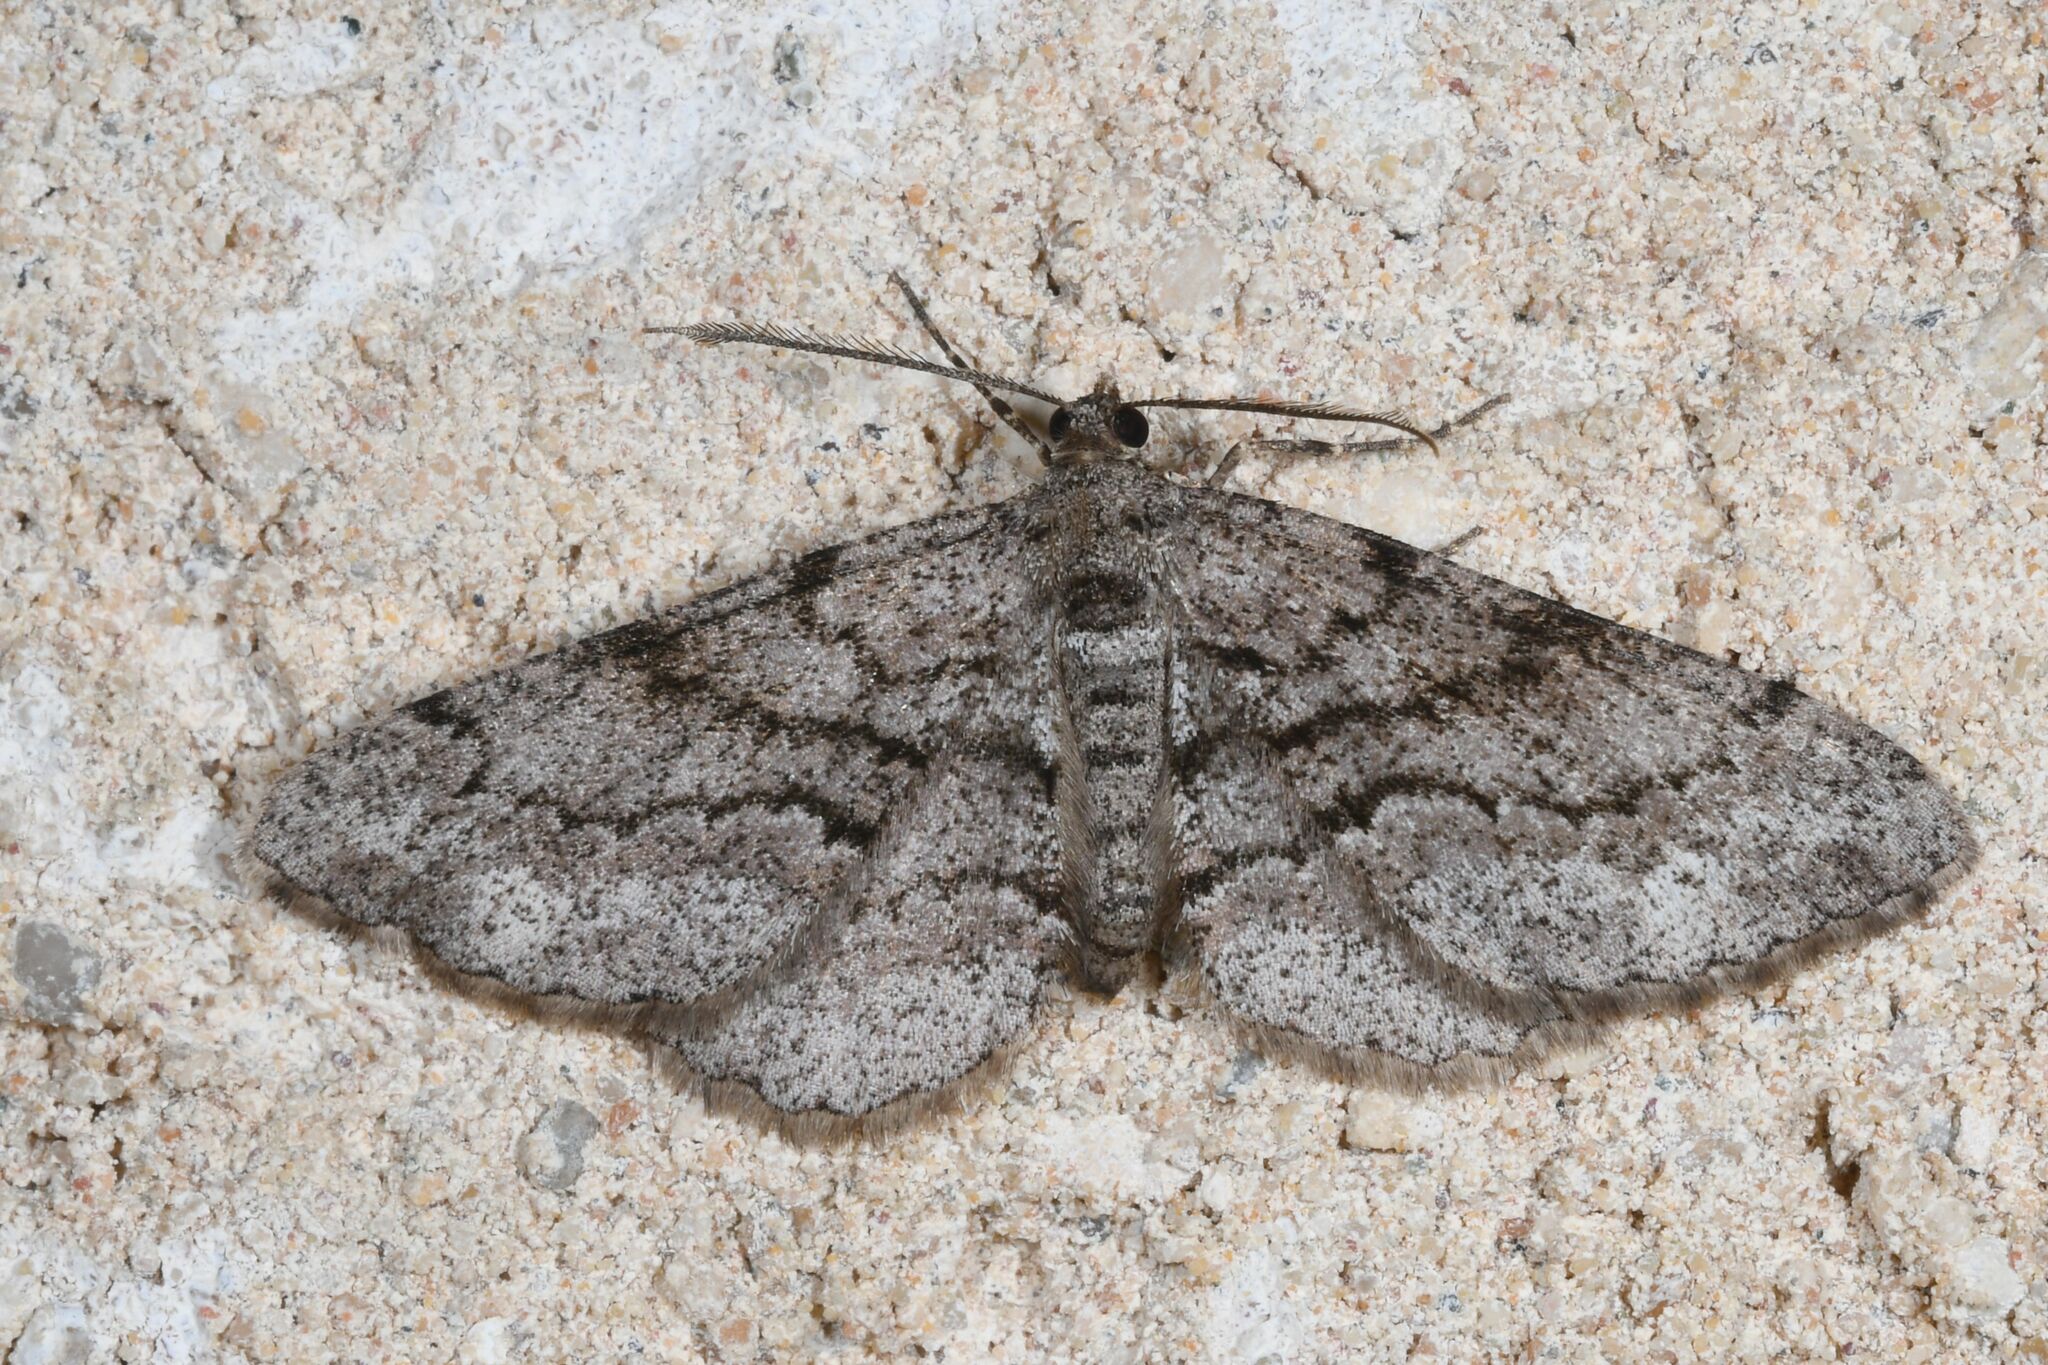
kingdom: Animalia
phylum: Arthropoda
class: Insecta
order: Lepidoptera
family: Geometridae
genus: Peribatodes
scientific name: Peribatodes secundaria
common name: Feathered beauty
